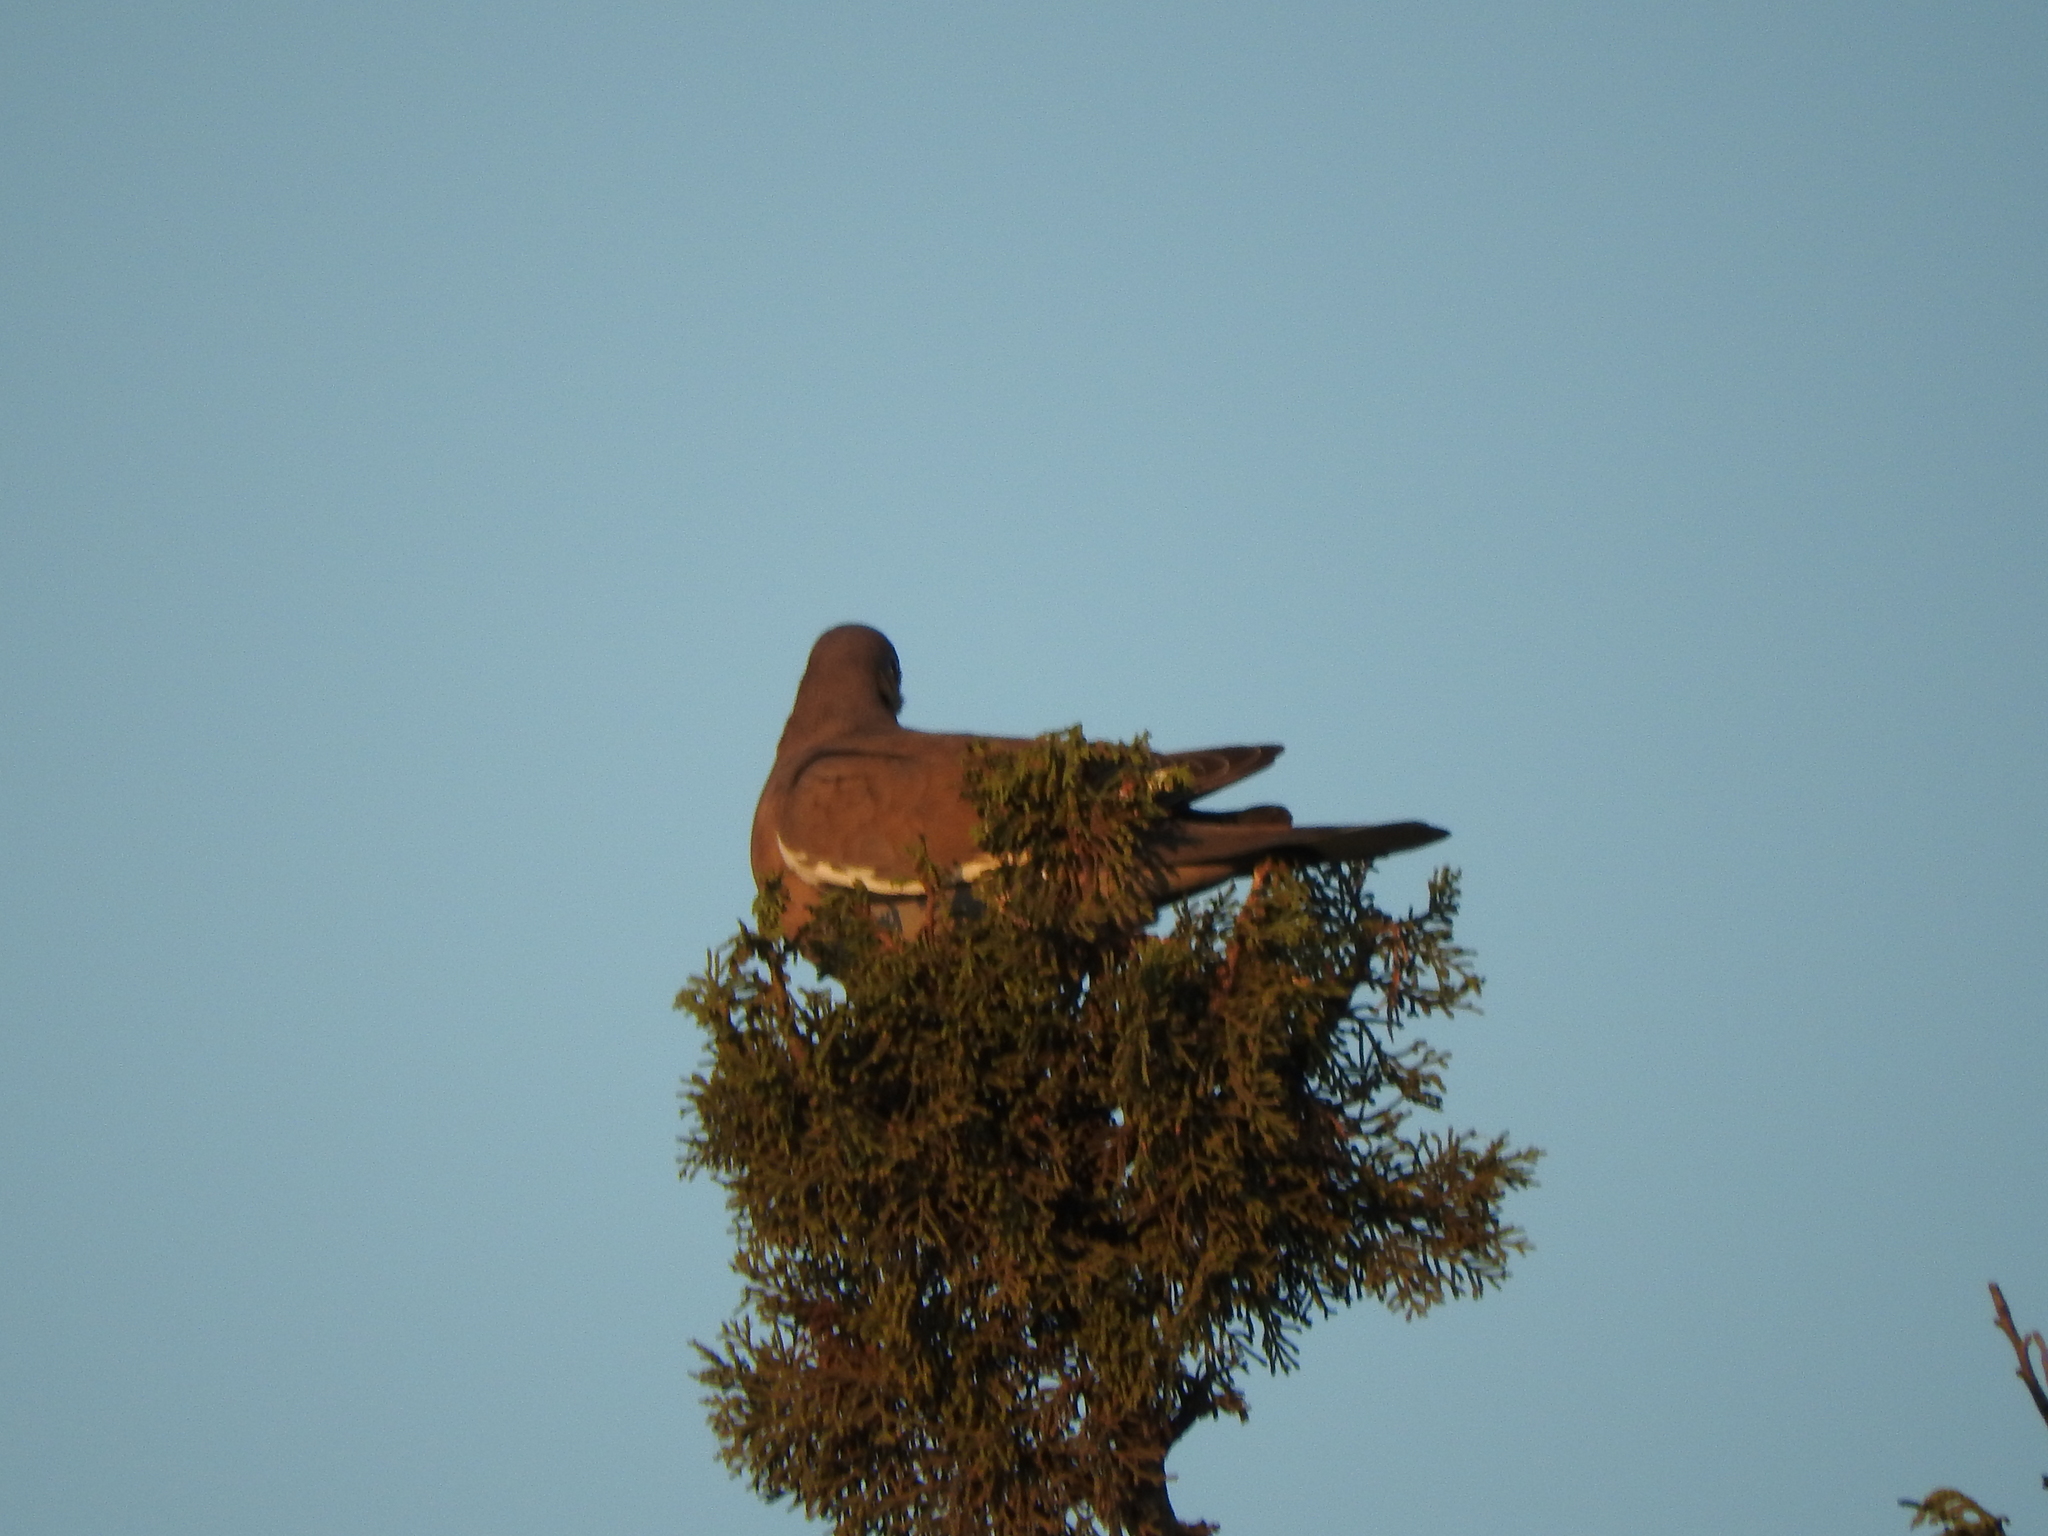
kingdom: Animalia
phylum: Chordata
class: Aves
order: Columbiformes
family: Columbidae
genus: Zenaida
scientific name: Zenaida asiatica
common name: White-winged dove
